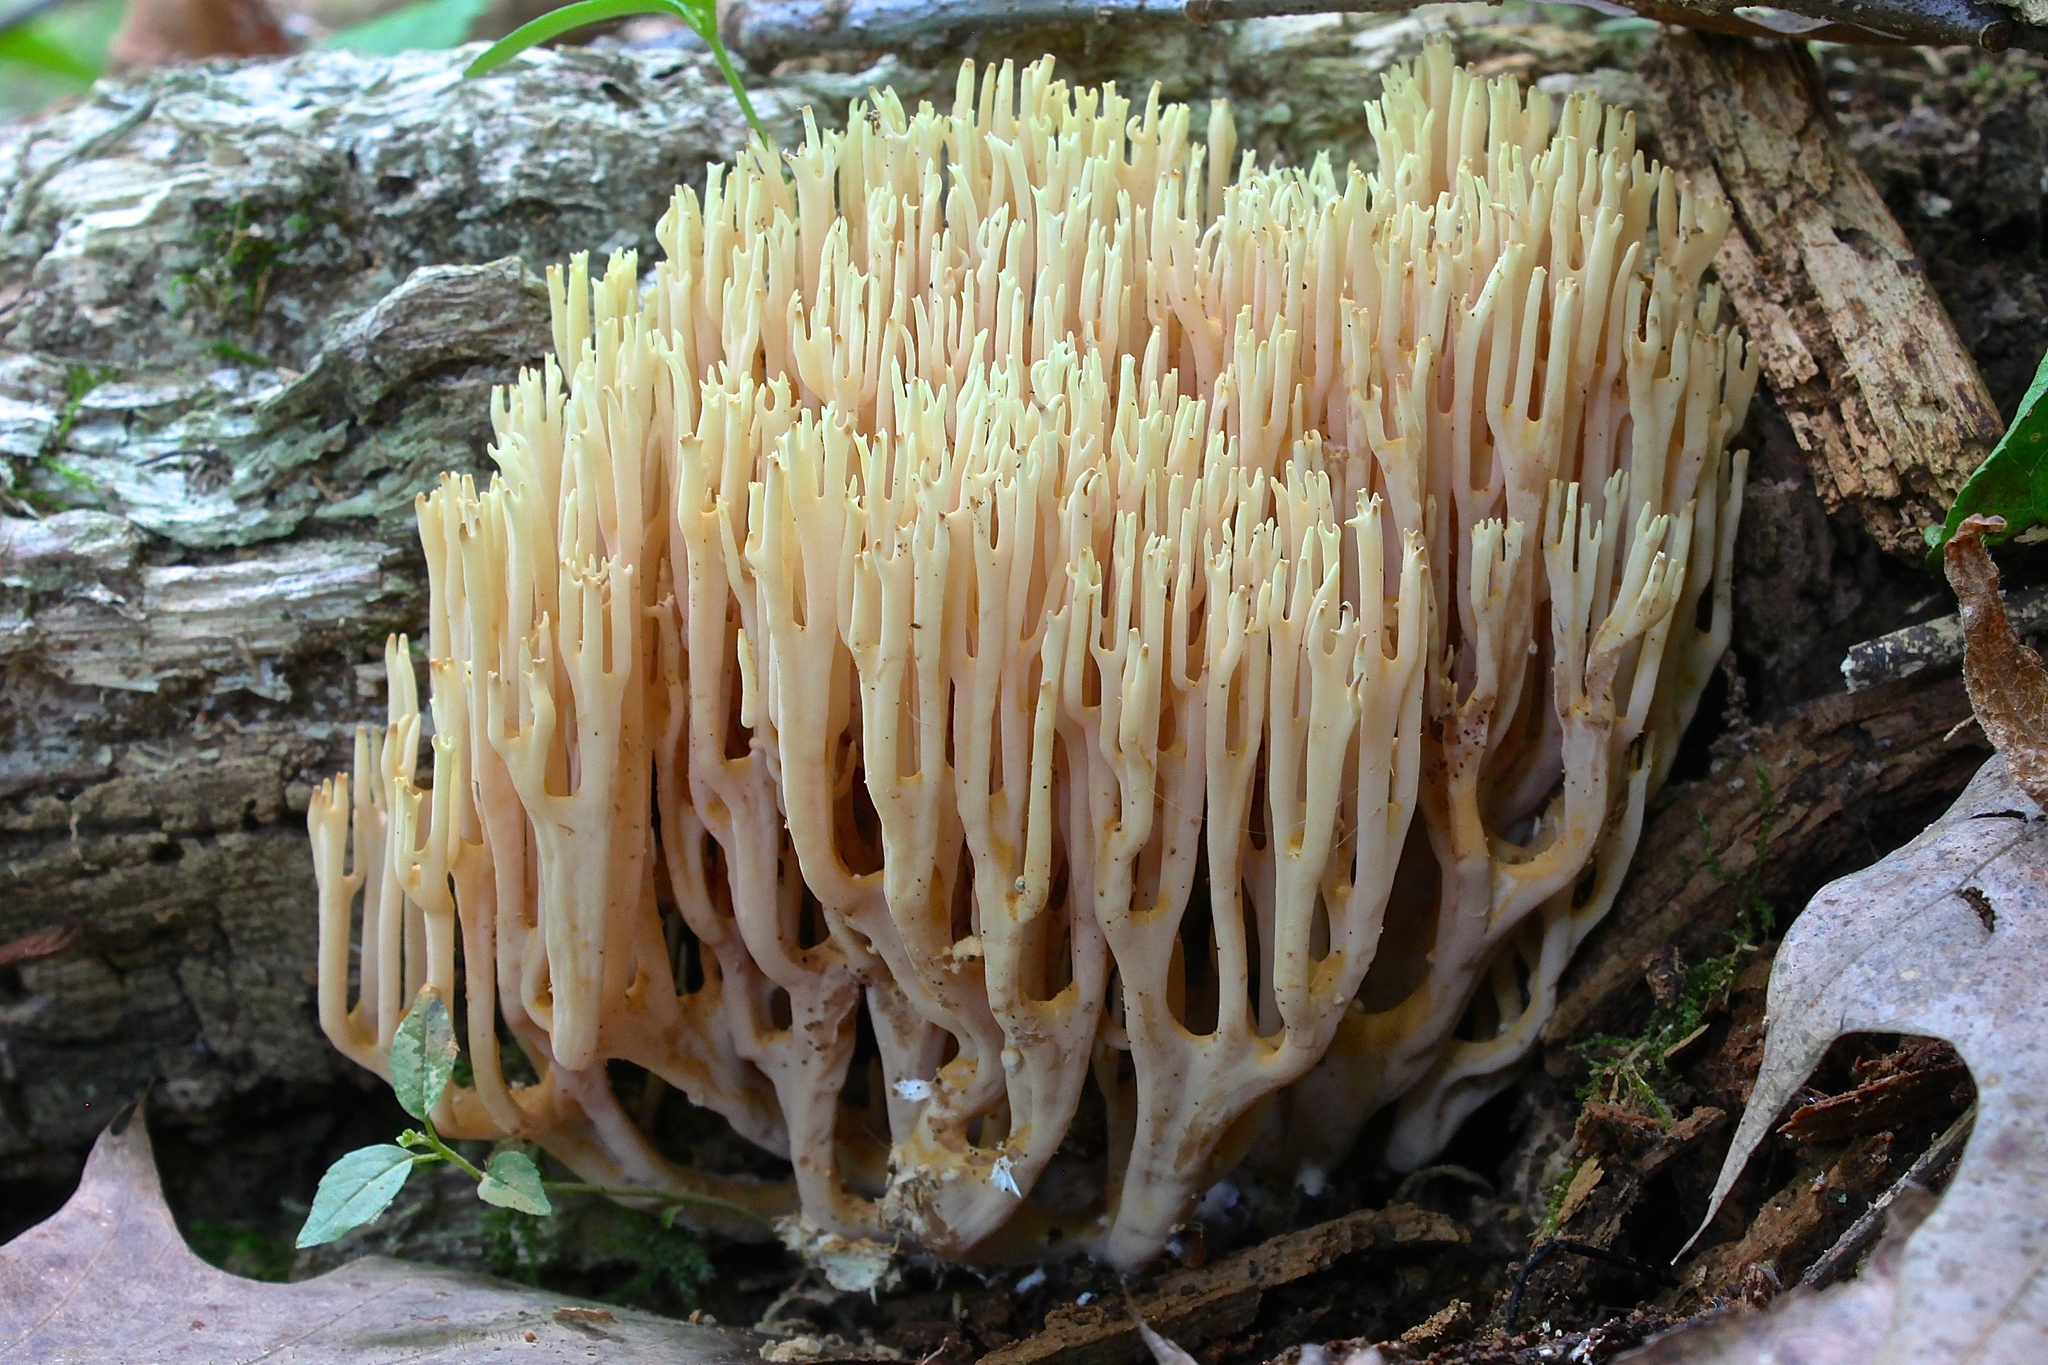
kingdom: Fungi
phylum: Basidiomycota
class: Agaricomycetes
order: Gomphales
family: Gomphaceae
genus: Ramaria
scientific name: Ramaria stricta
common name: Upright coral
